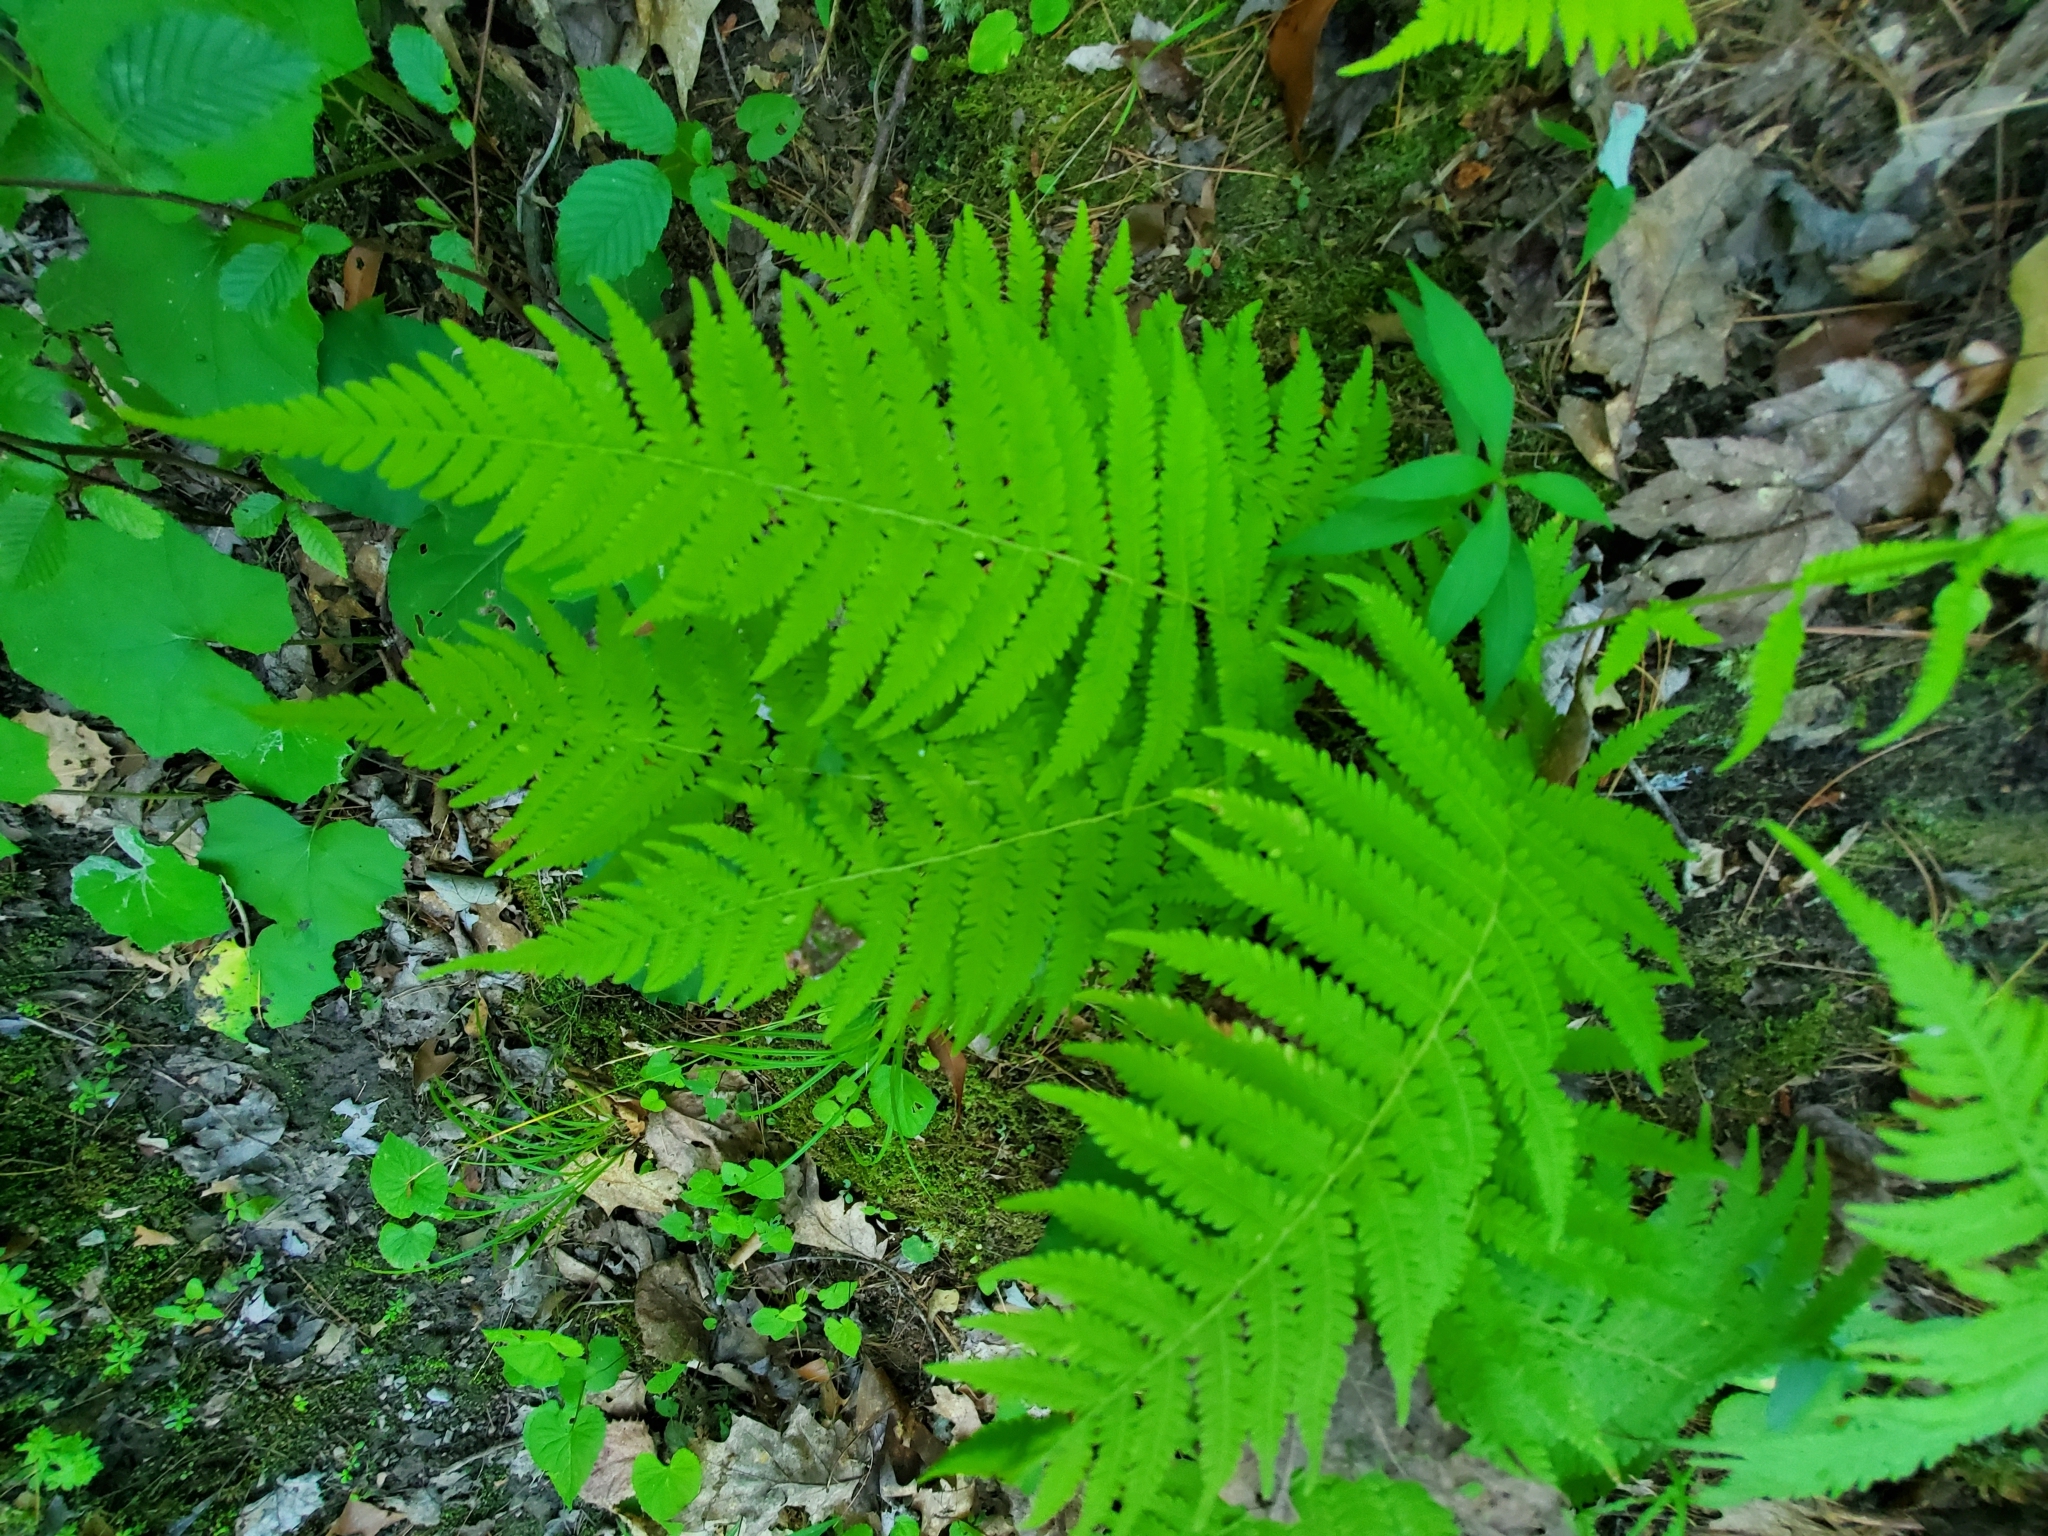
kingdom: Plantae
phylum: Tracheophyta
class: Polypodiopsida
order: Polypodiales
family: Thelypteridaceae
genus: Amauropelta
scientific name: Amauropelta noveboracensis
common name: New york fern
